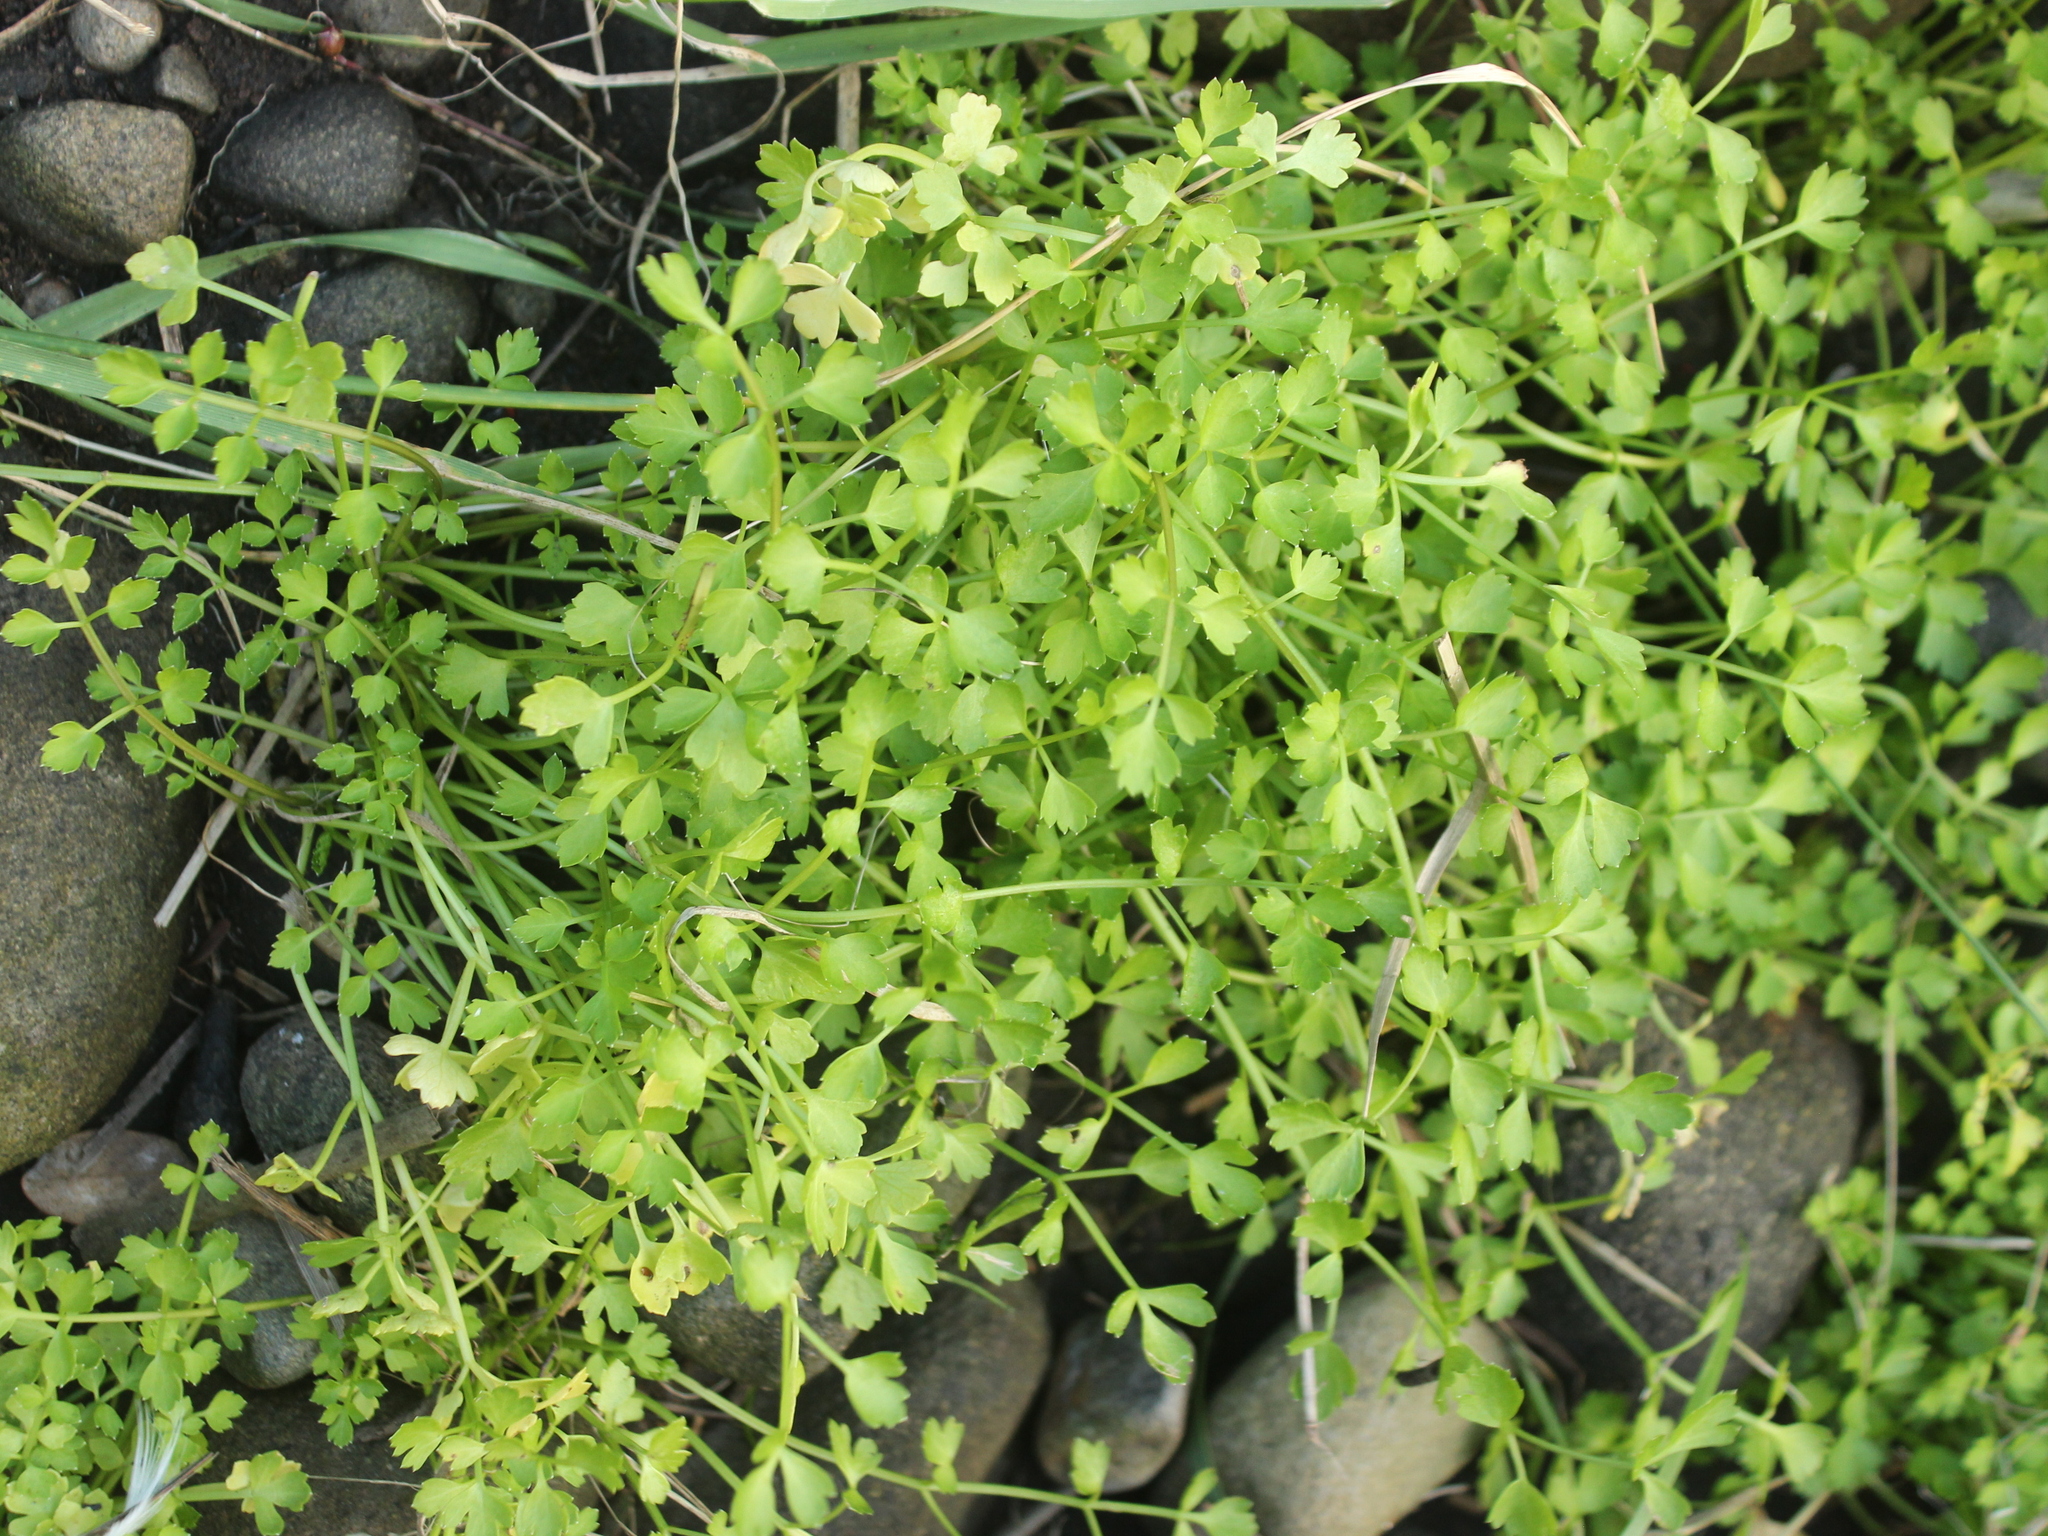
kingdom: Plantae
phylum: Tracheophyta
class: Magnoliopsida
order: Apiales
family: Apiaceae
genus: Apium
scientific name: Apium prostratum
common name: Prostrate marshwort
